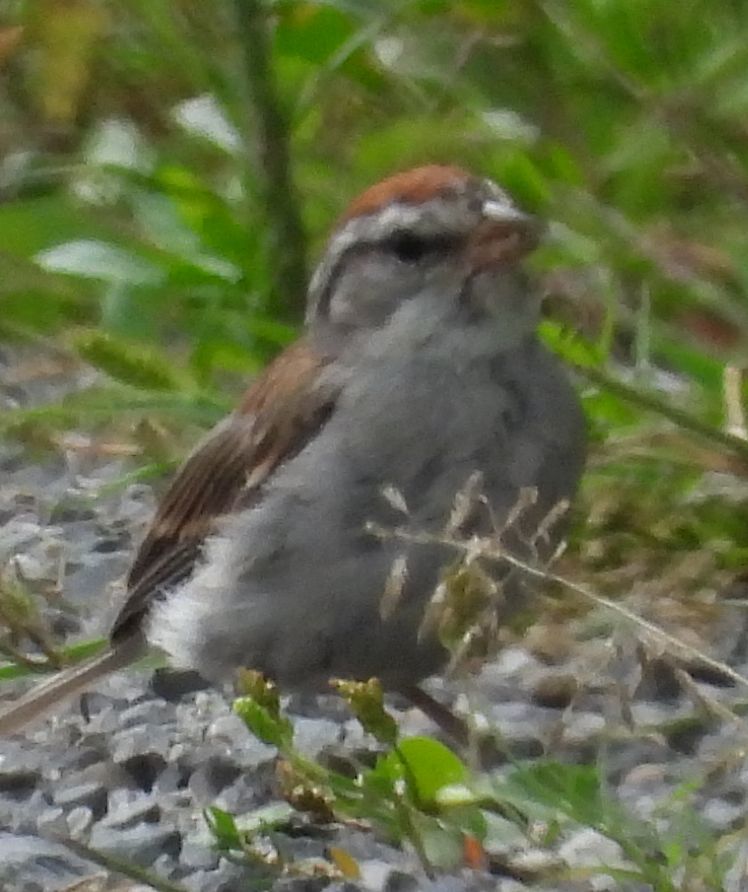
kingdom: Animalia
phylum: Chordata
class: Aves
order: Passeriformes
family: Passerellidae
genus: Spizella
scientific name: Spizella passerina
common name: Chipping sparrow
